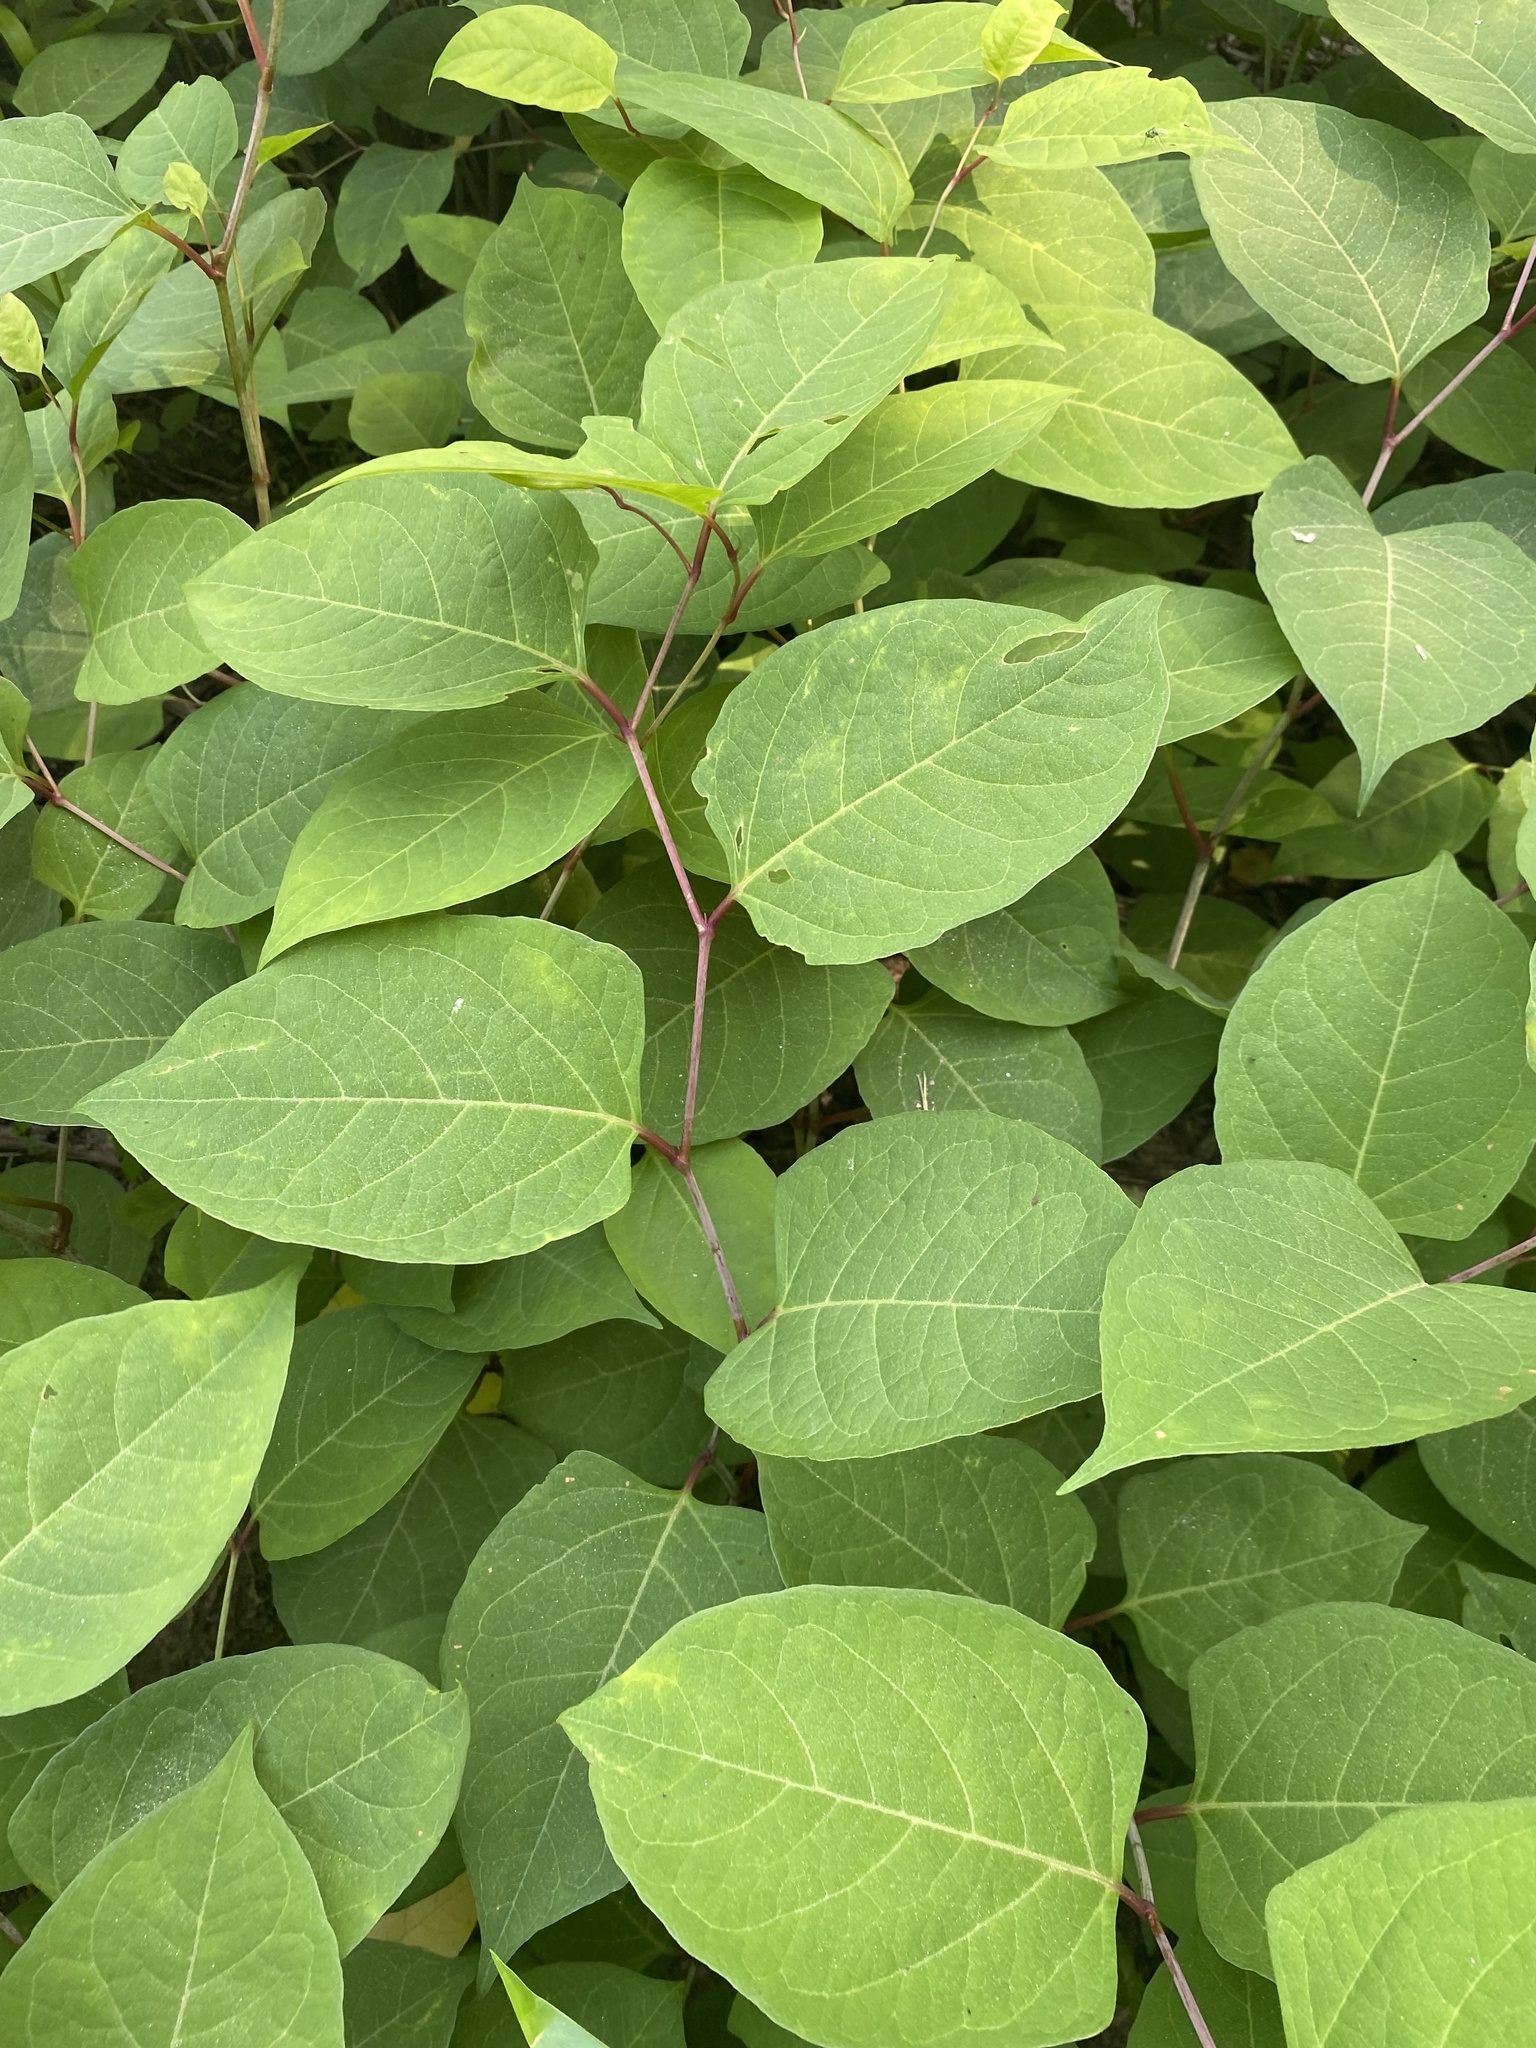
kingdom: Plantae
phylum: Tracheophyta
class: Magnoliopsida
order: Caryophyllales
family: Polygonaceae
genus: Reynoutria
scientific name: Reynoutria japonica
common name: Japanese knotweed
